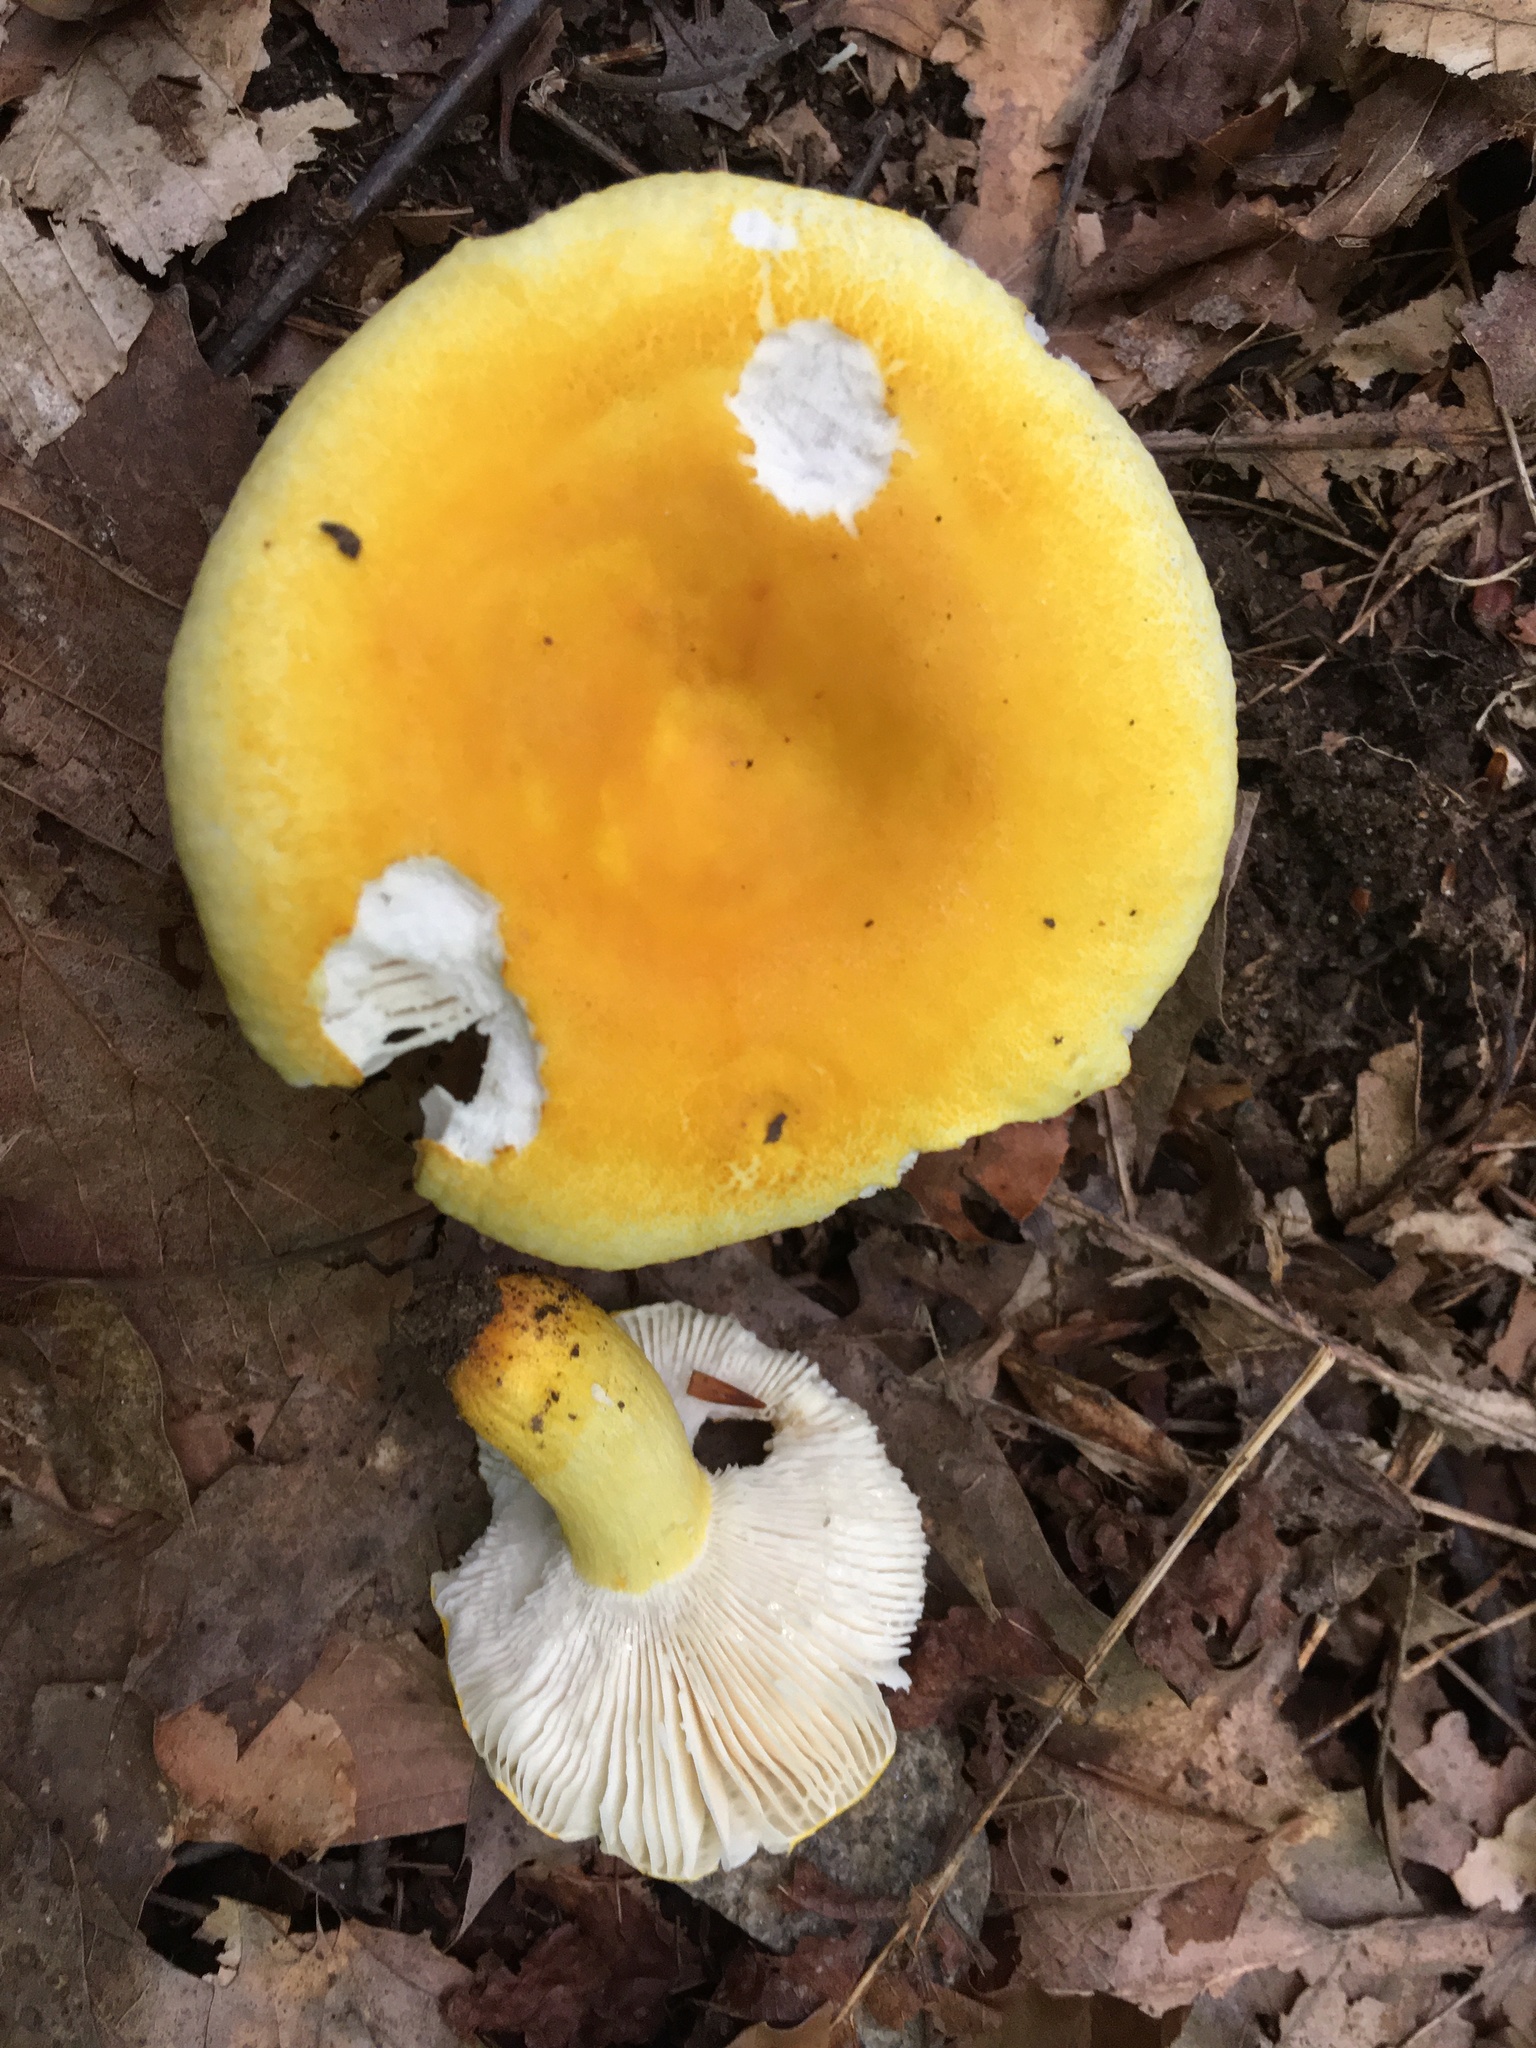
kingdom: Fungi
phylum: Basidiomycota
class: Agaricomycetes
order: Russulales
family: Russulaceae
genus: Russula
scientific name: Russula flavida
